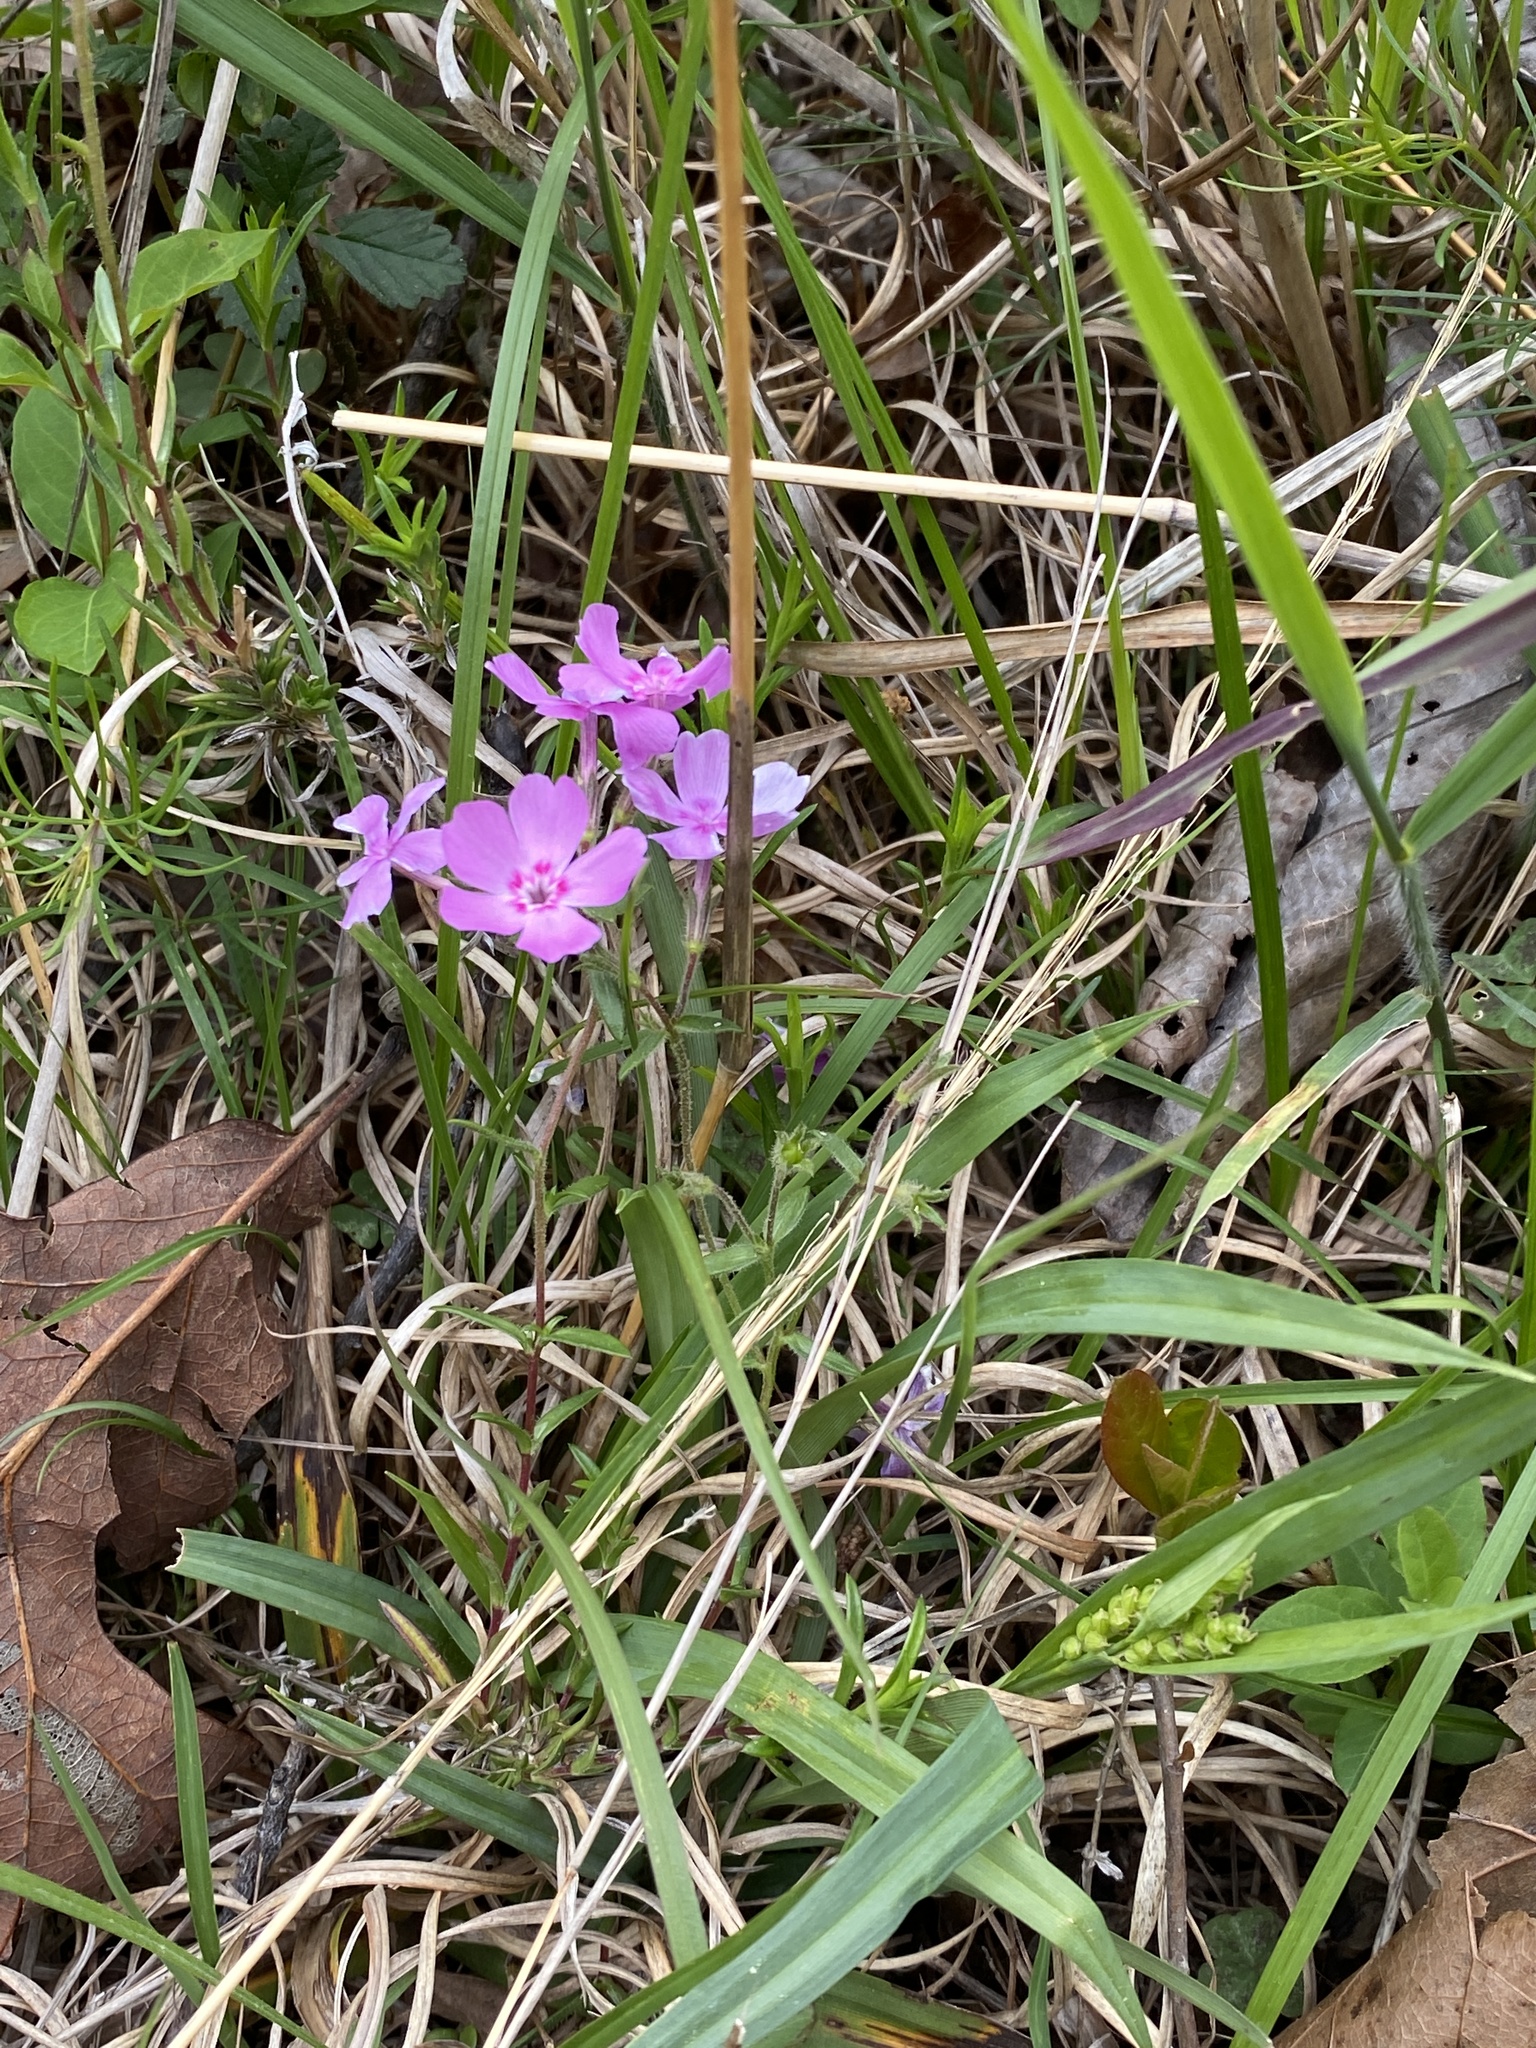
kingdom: Plantae
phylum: Tracheophyta
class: Magnoliopsida
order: Ericales
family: Polemoniaceae
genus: Phlox
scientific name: Phlox nivalis
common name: Trailing phlox
